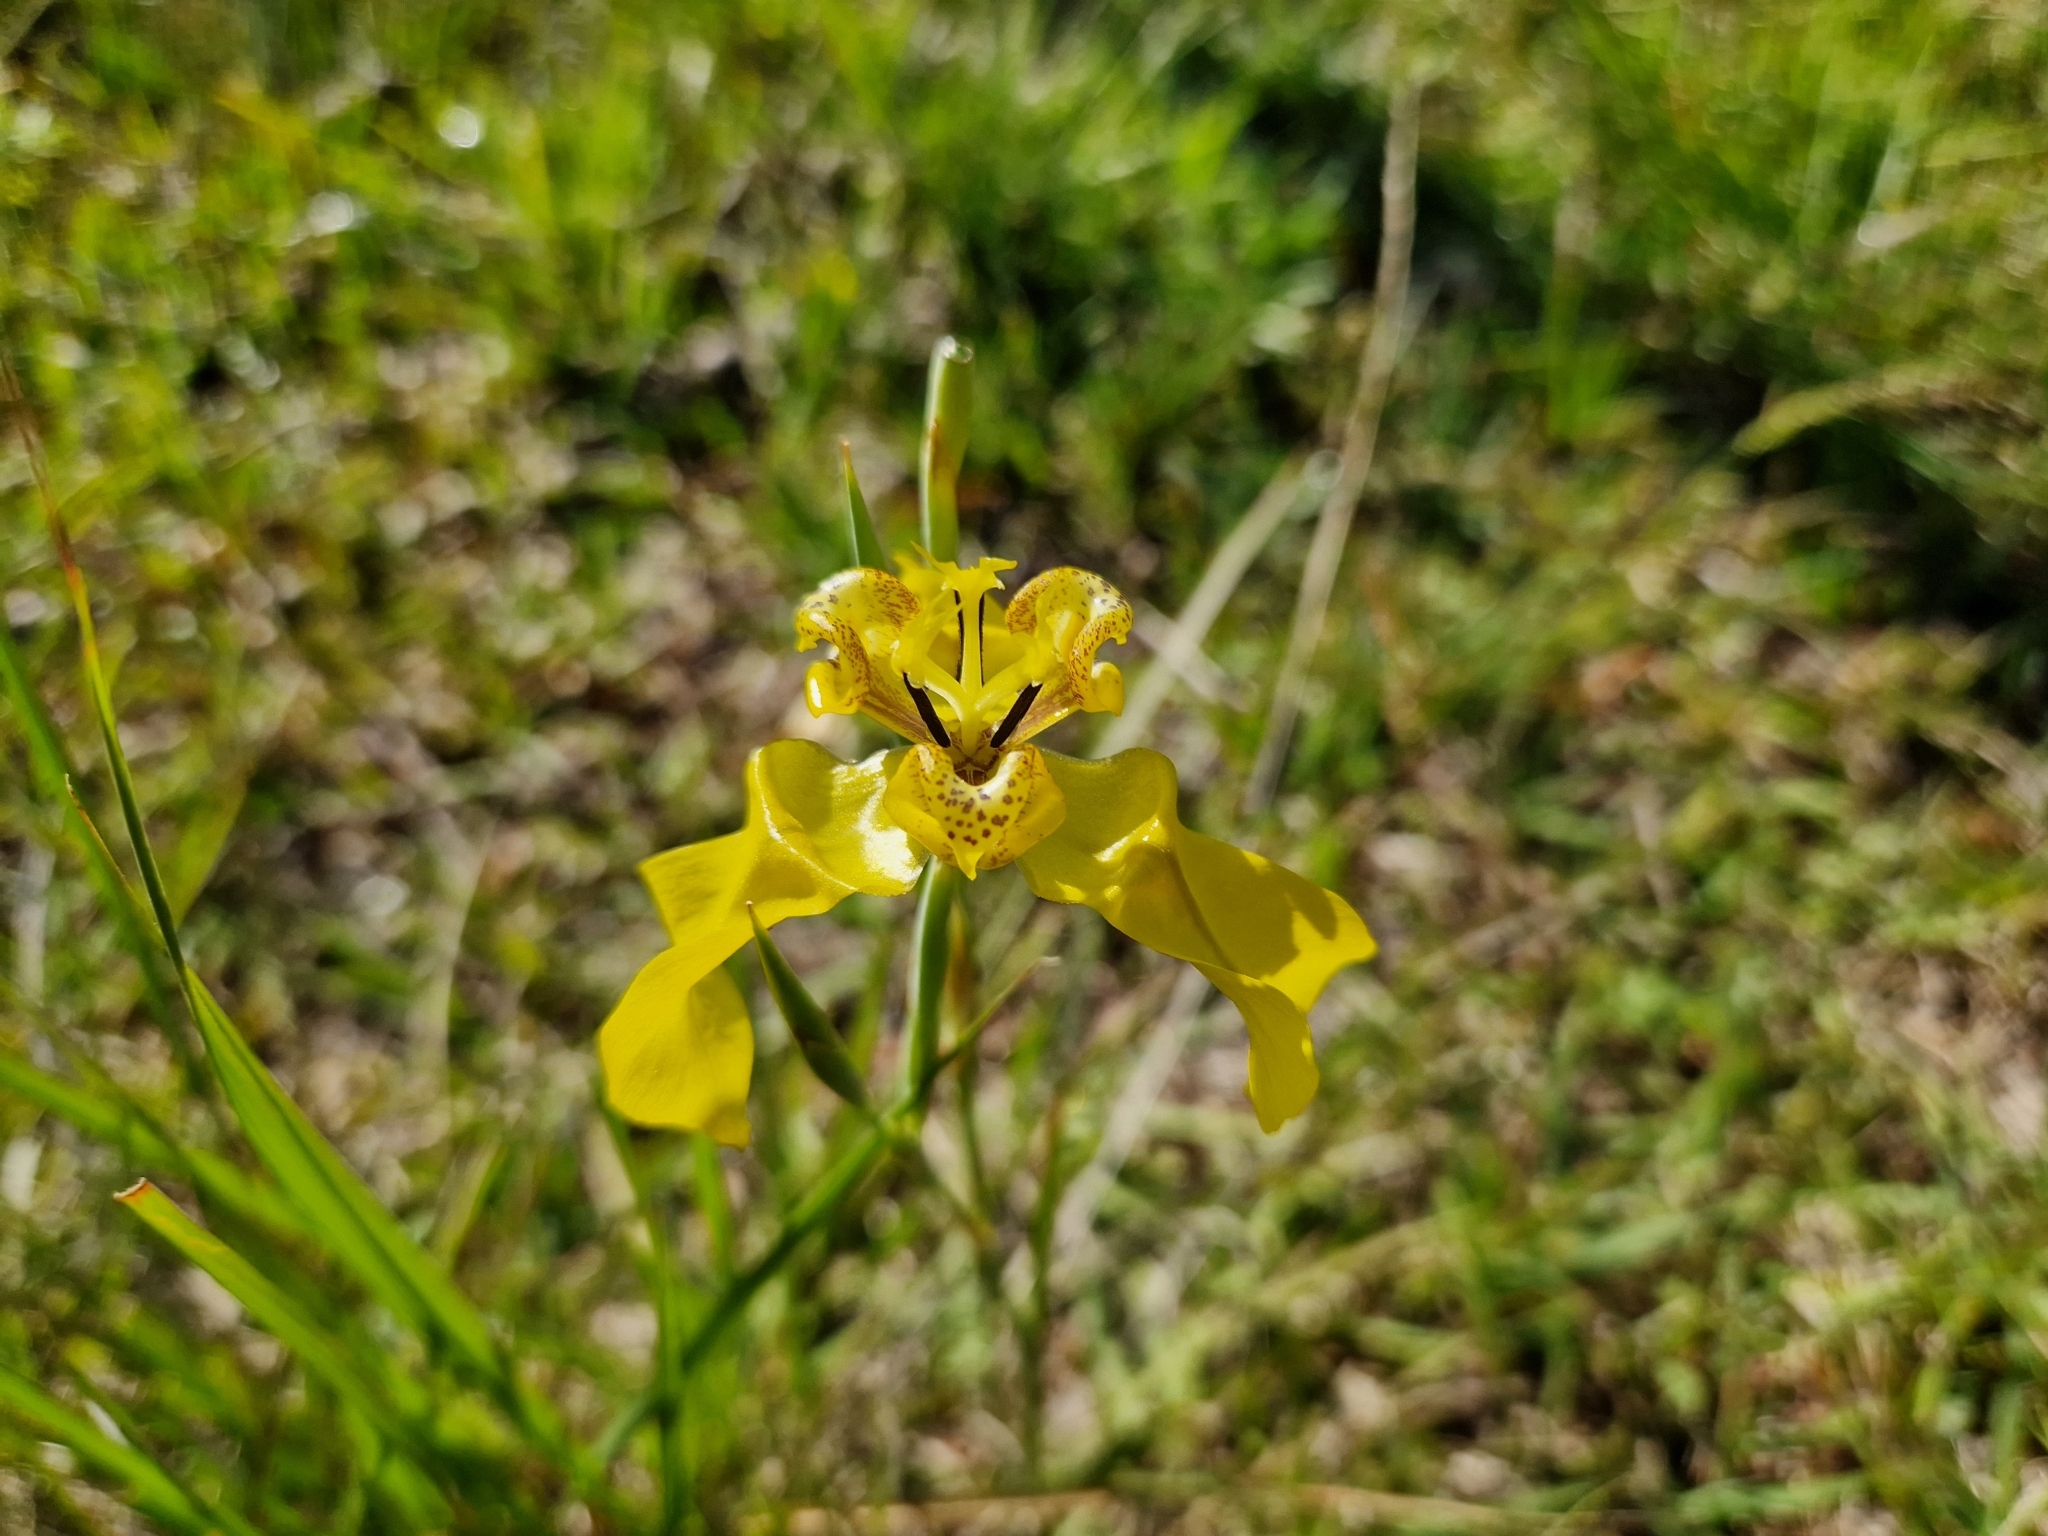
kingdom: Plantae
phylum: Tracheophyta
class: Liliopsida
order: Asparagales
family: Iridaceae
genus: Cypella
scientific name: Cypella armosa
